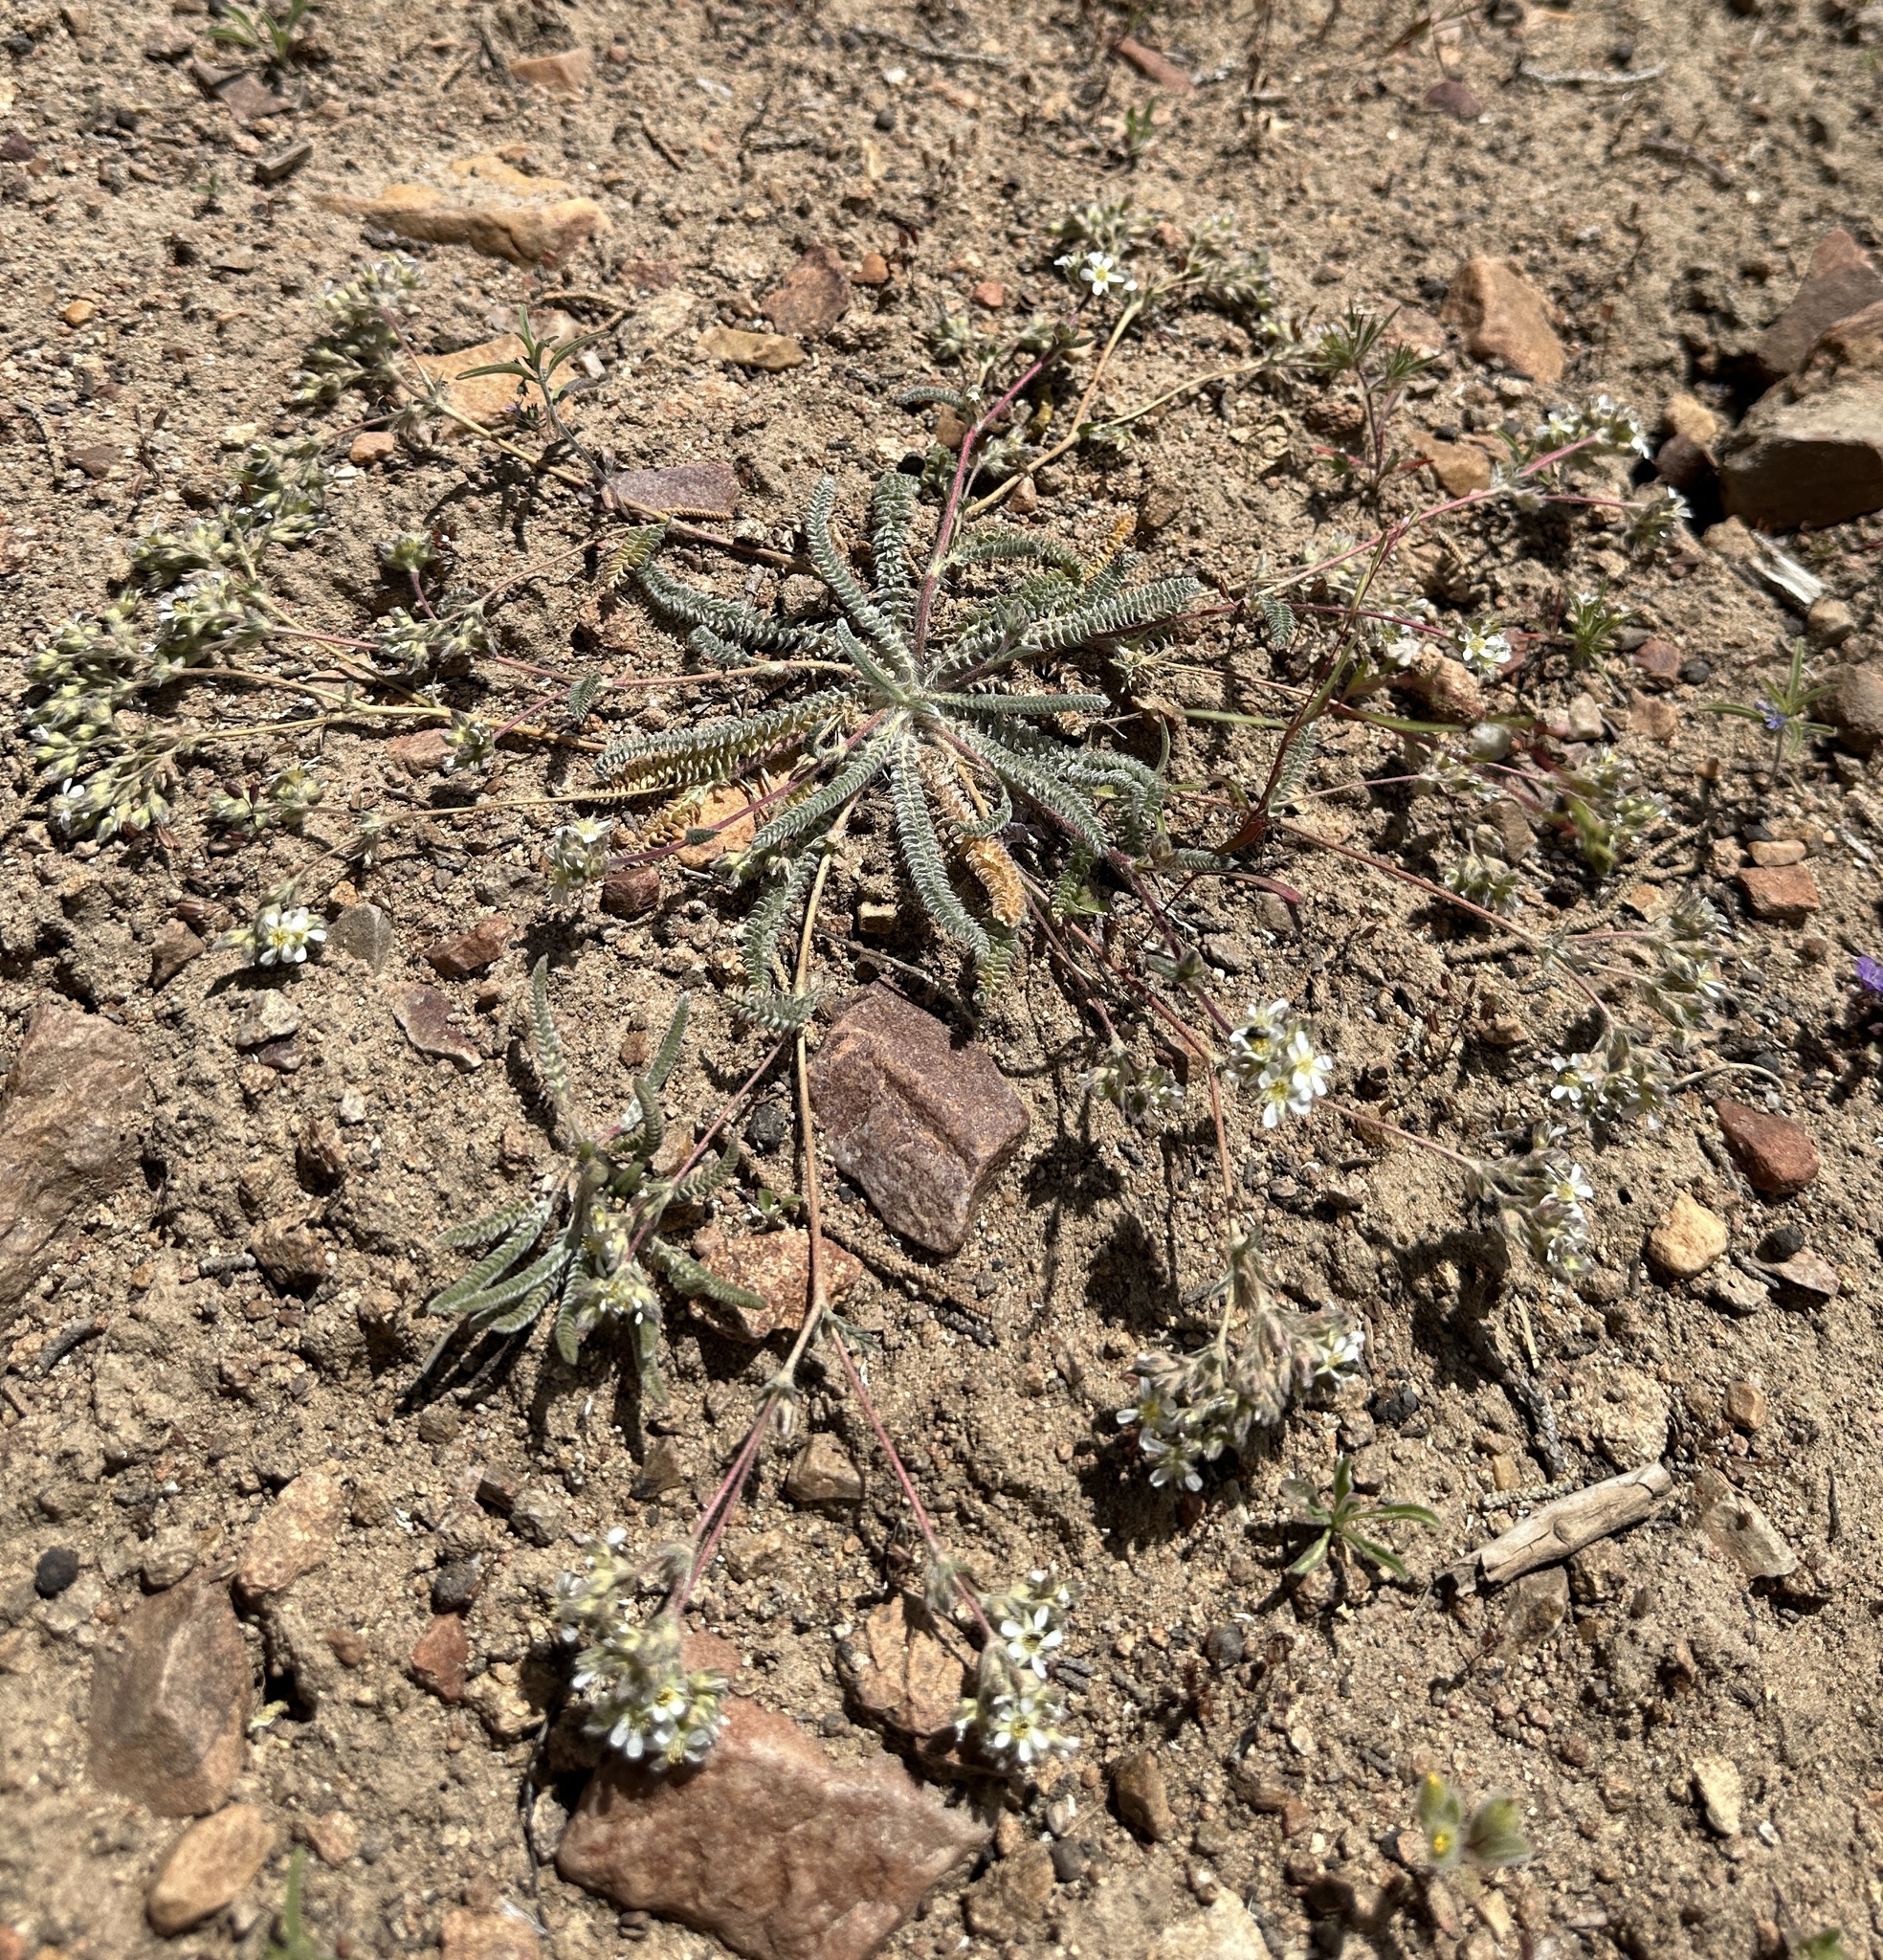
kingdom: Plantae
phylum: Tracheophyta
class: Magnoliopsida
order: Rosales
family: Rosaceae
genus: Potentilla
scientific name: Potentilla argyrocoma
